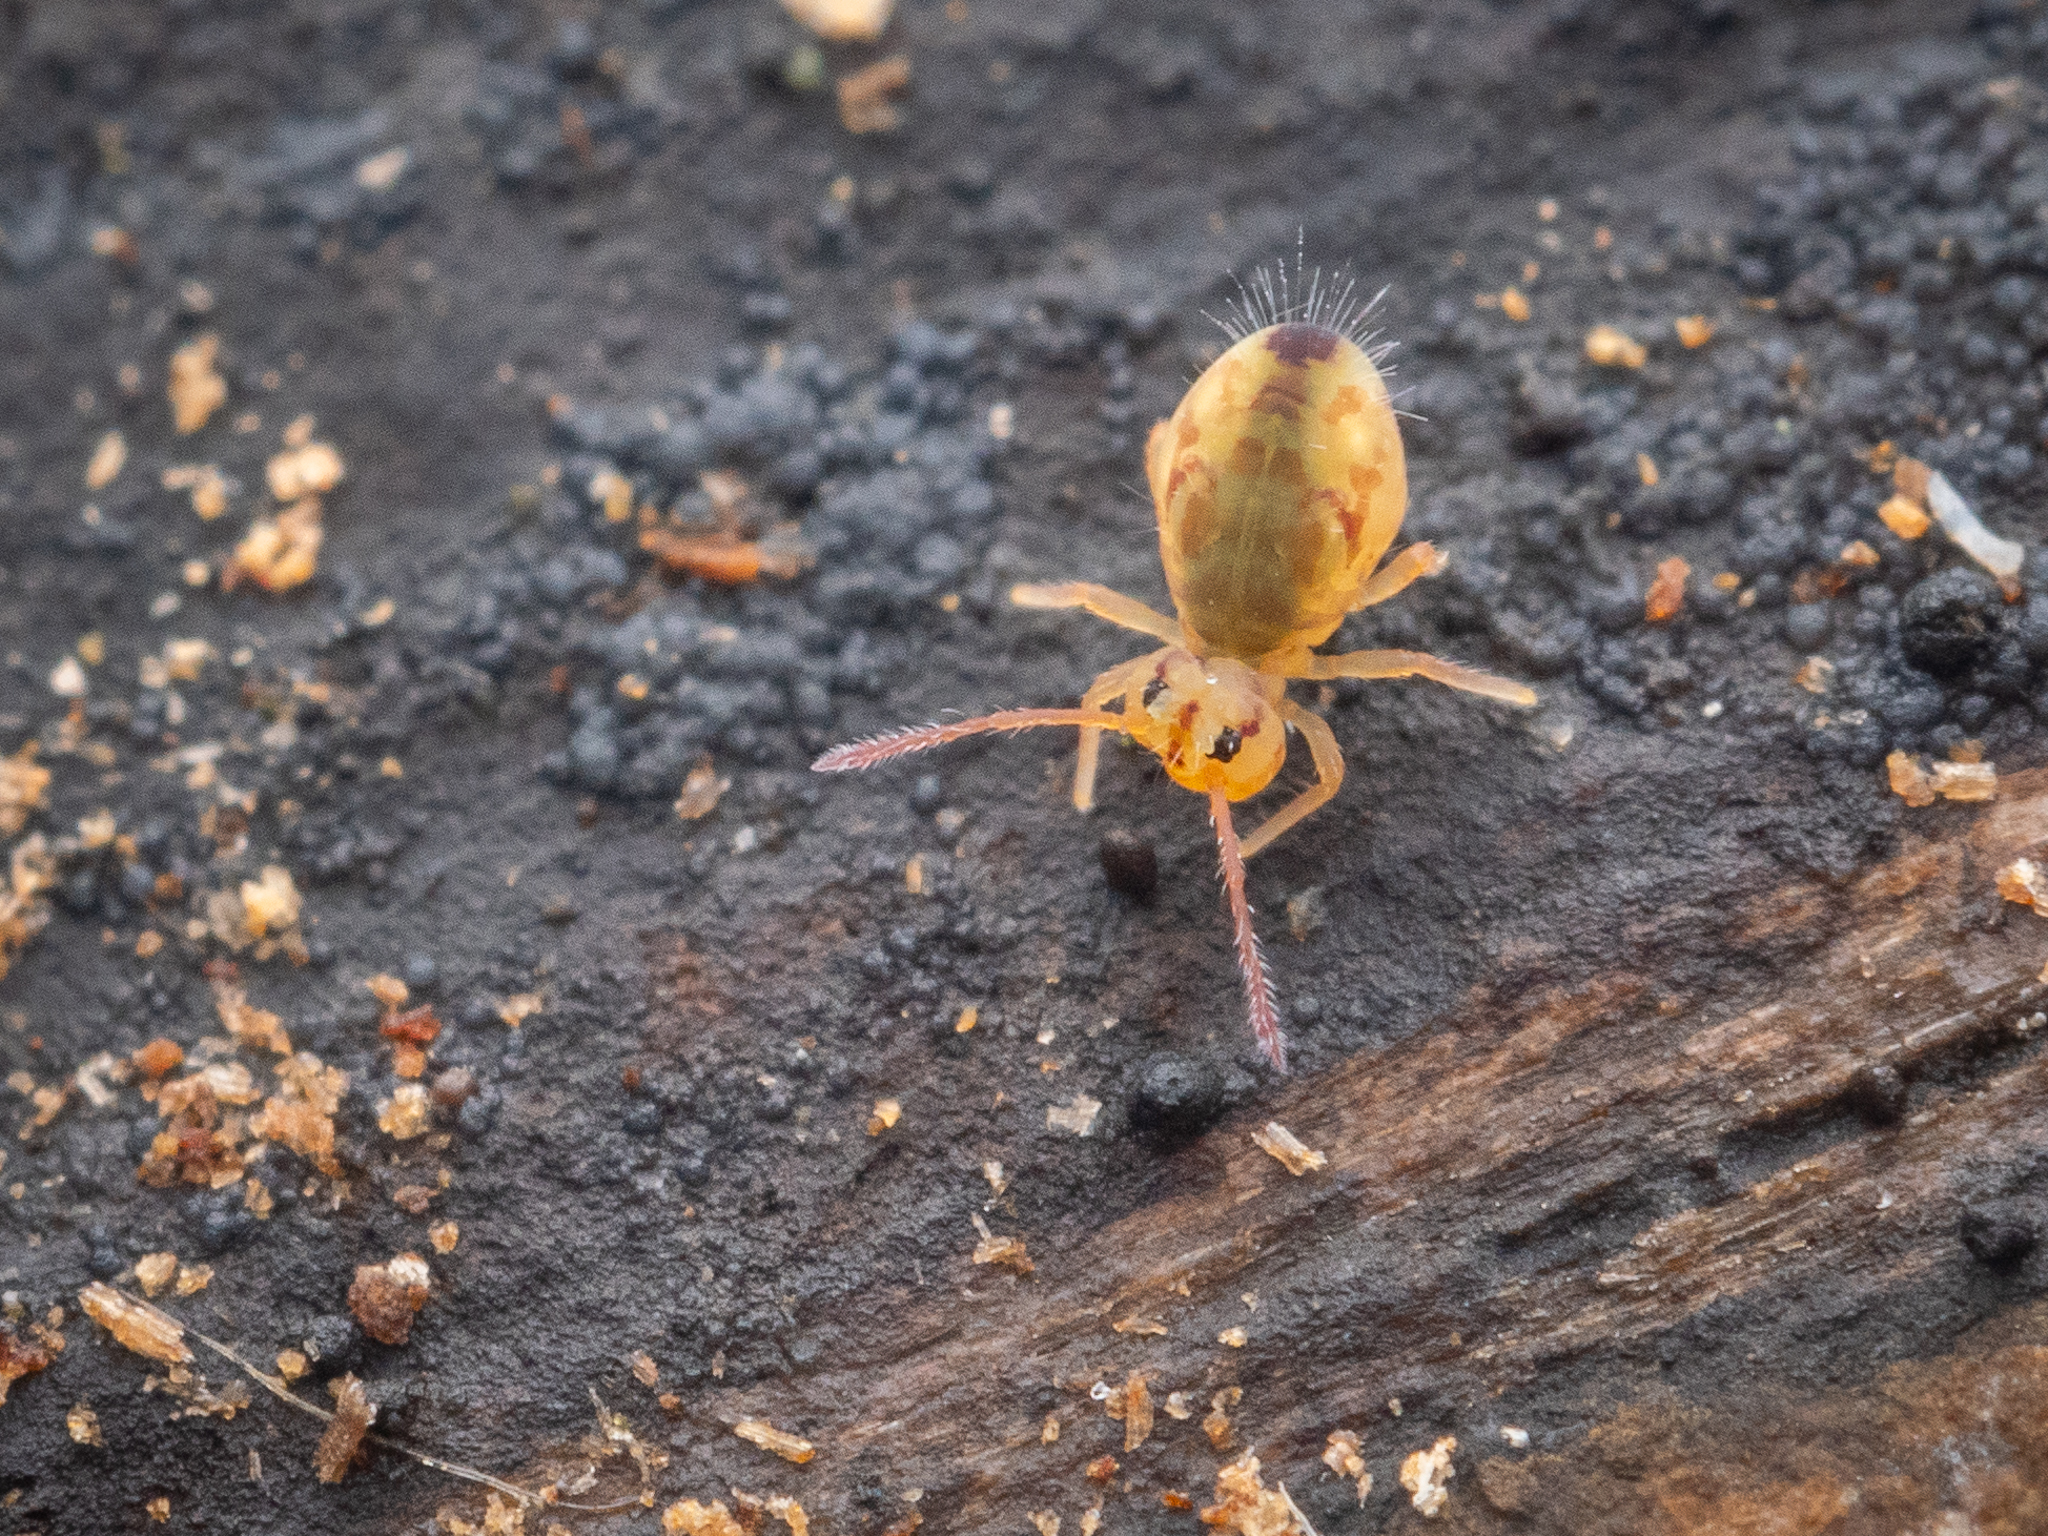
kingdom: Animalia
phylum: Arthropoda
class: Collembola
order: Symphypleona
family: Dicyrtomidae
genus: Dicyrtomina
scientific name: Dicyrtomina ornata
